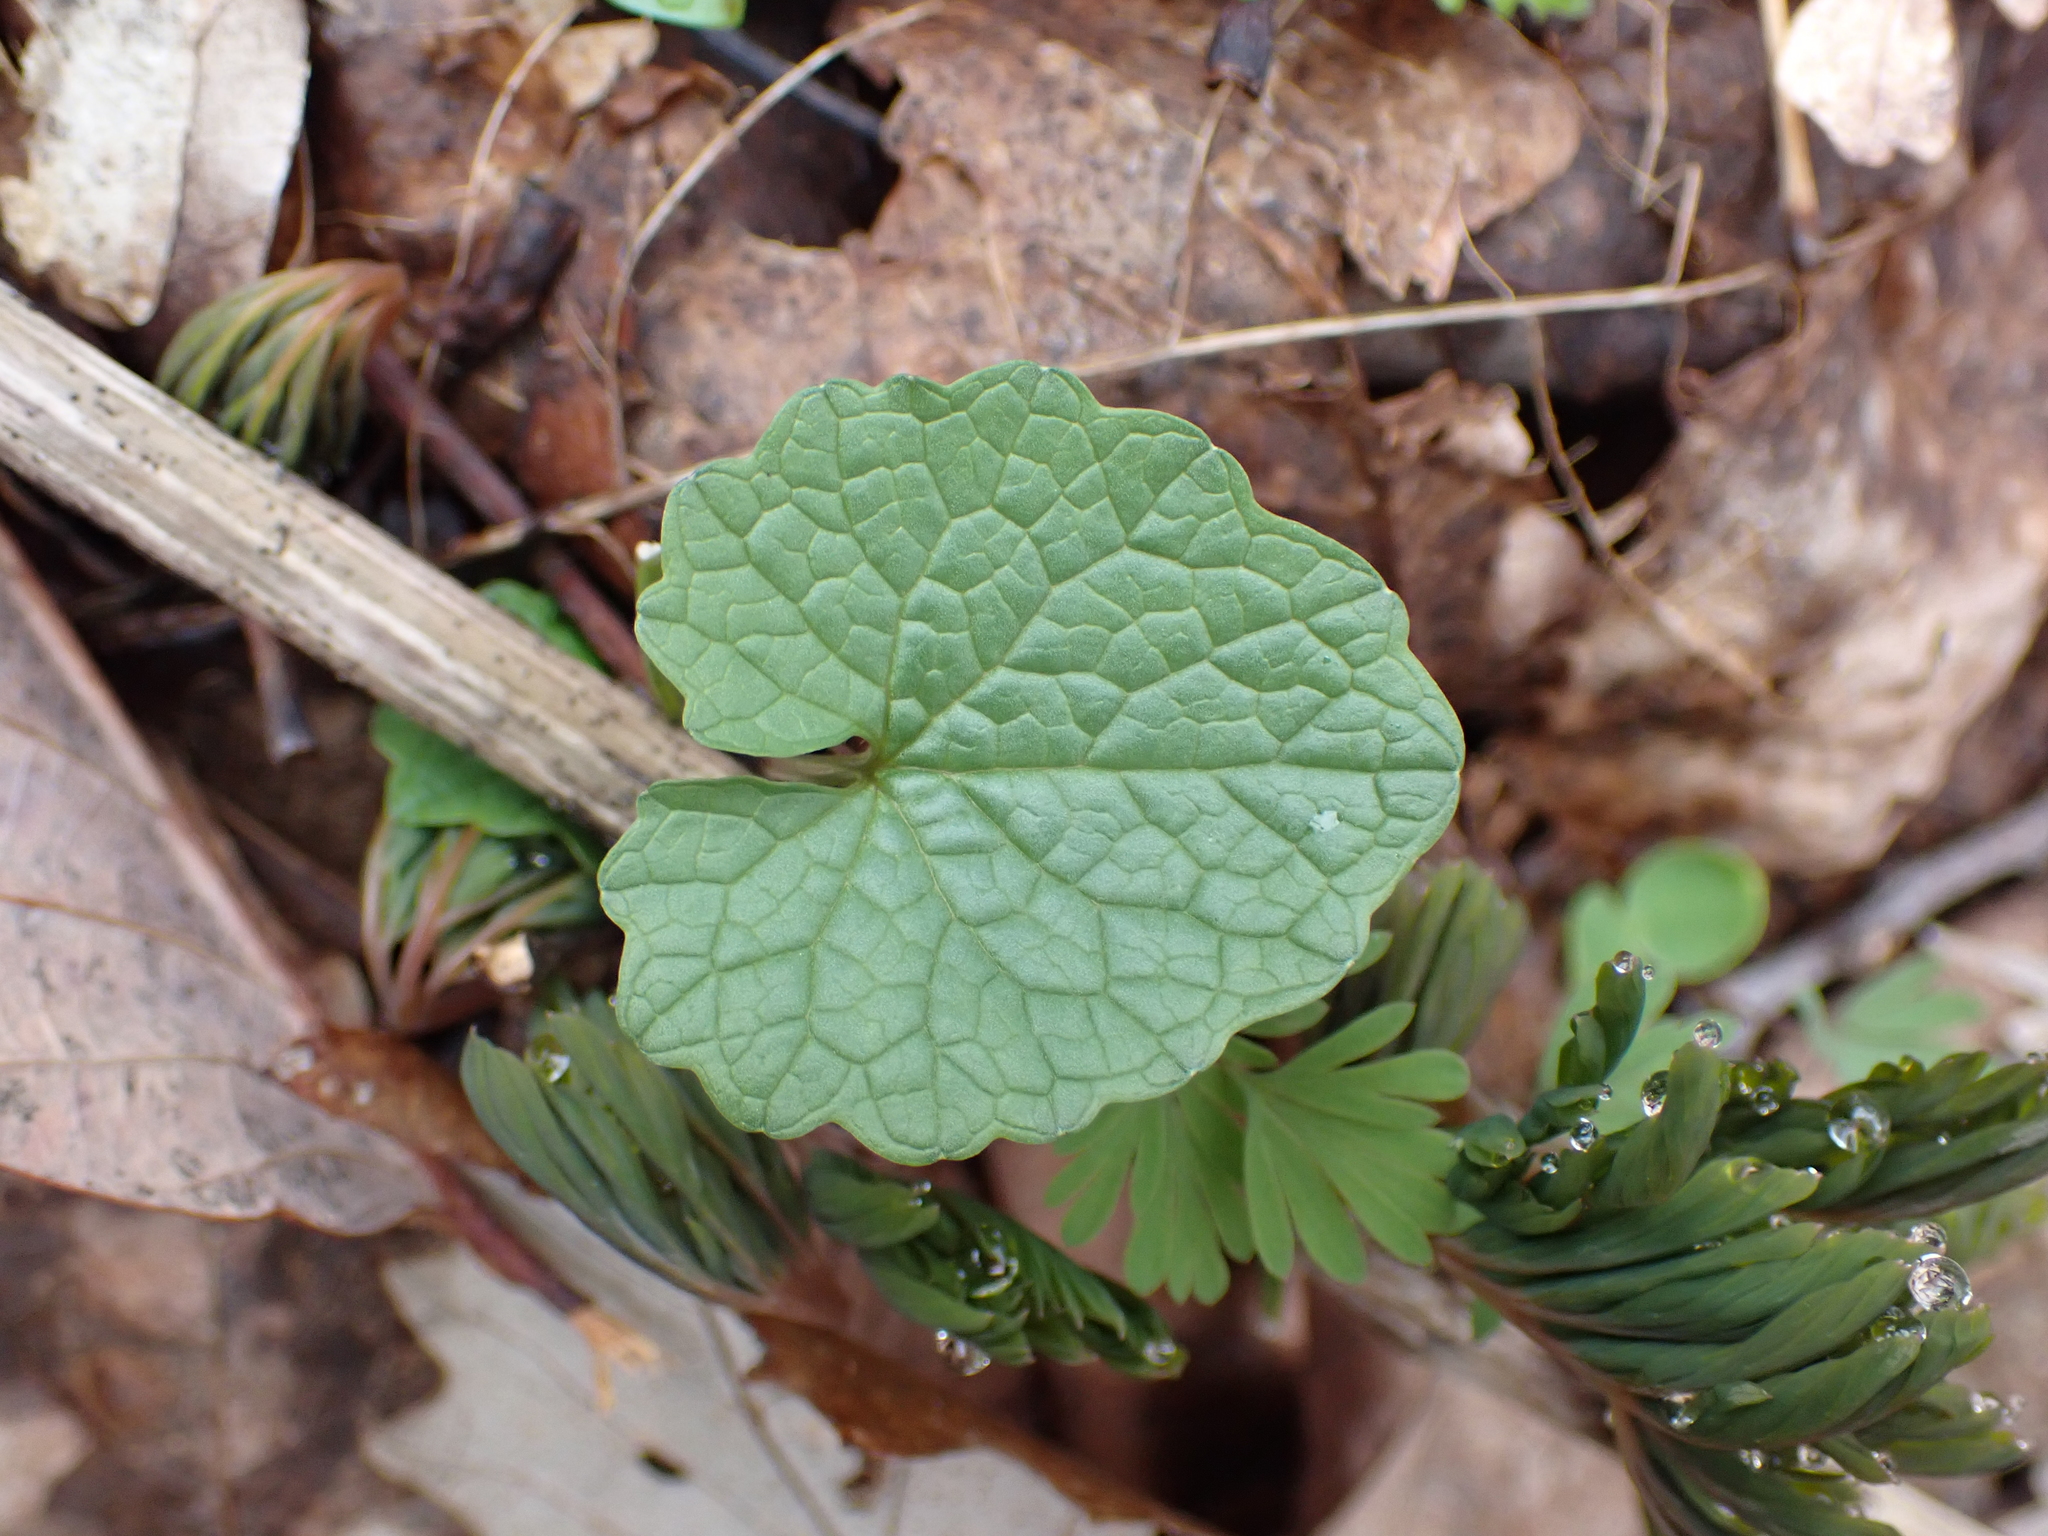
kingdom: Plantae
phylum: Tracheophyta
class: Magnoliopsida
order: Brassicales
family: Brassicaceae
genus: Alliaria
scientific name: Alliaria petiolata
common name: Garlic mustard
